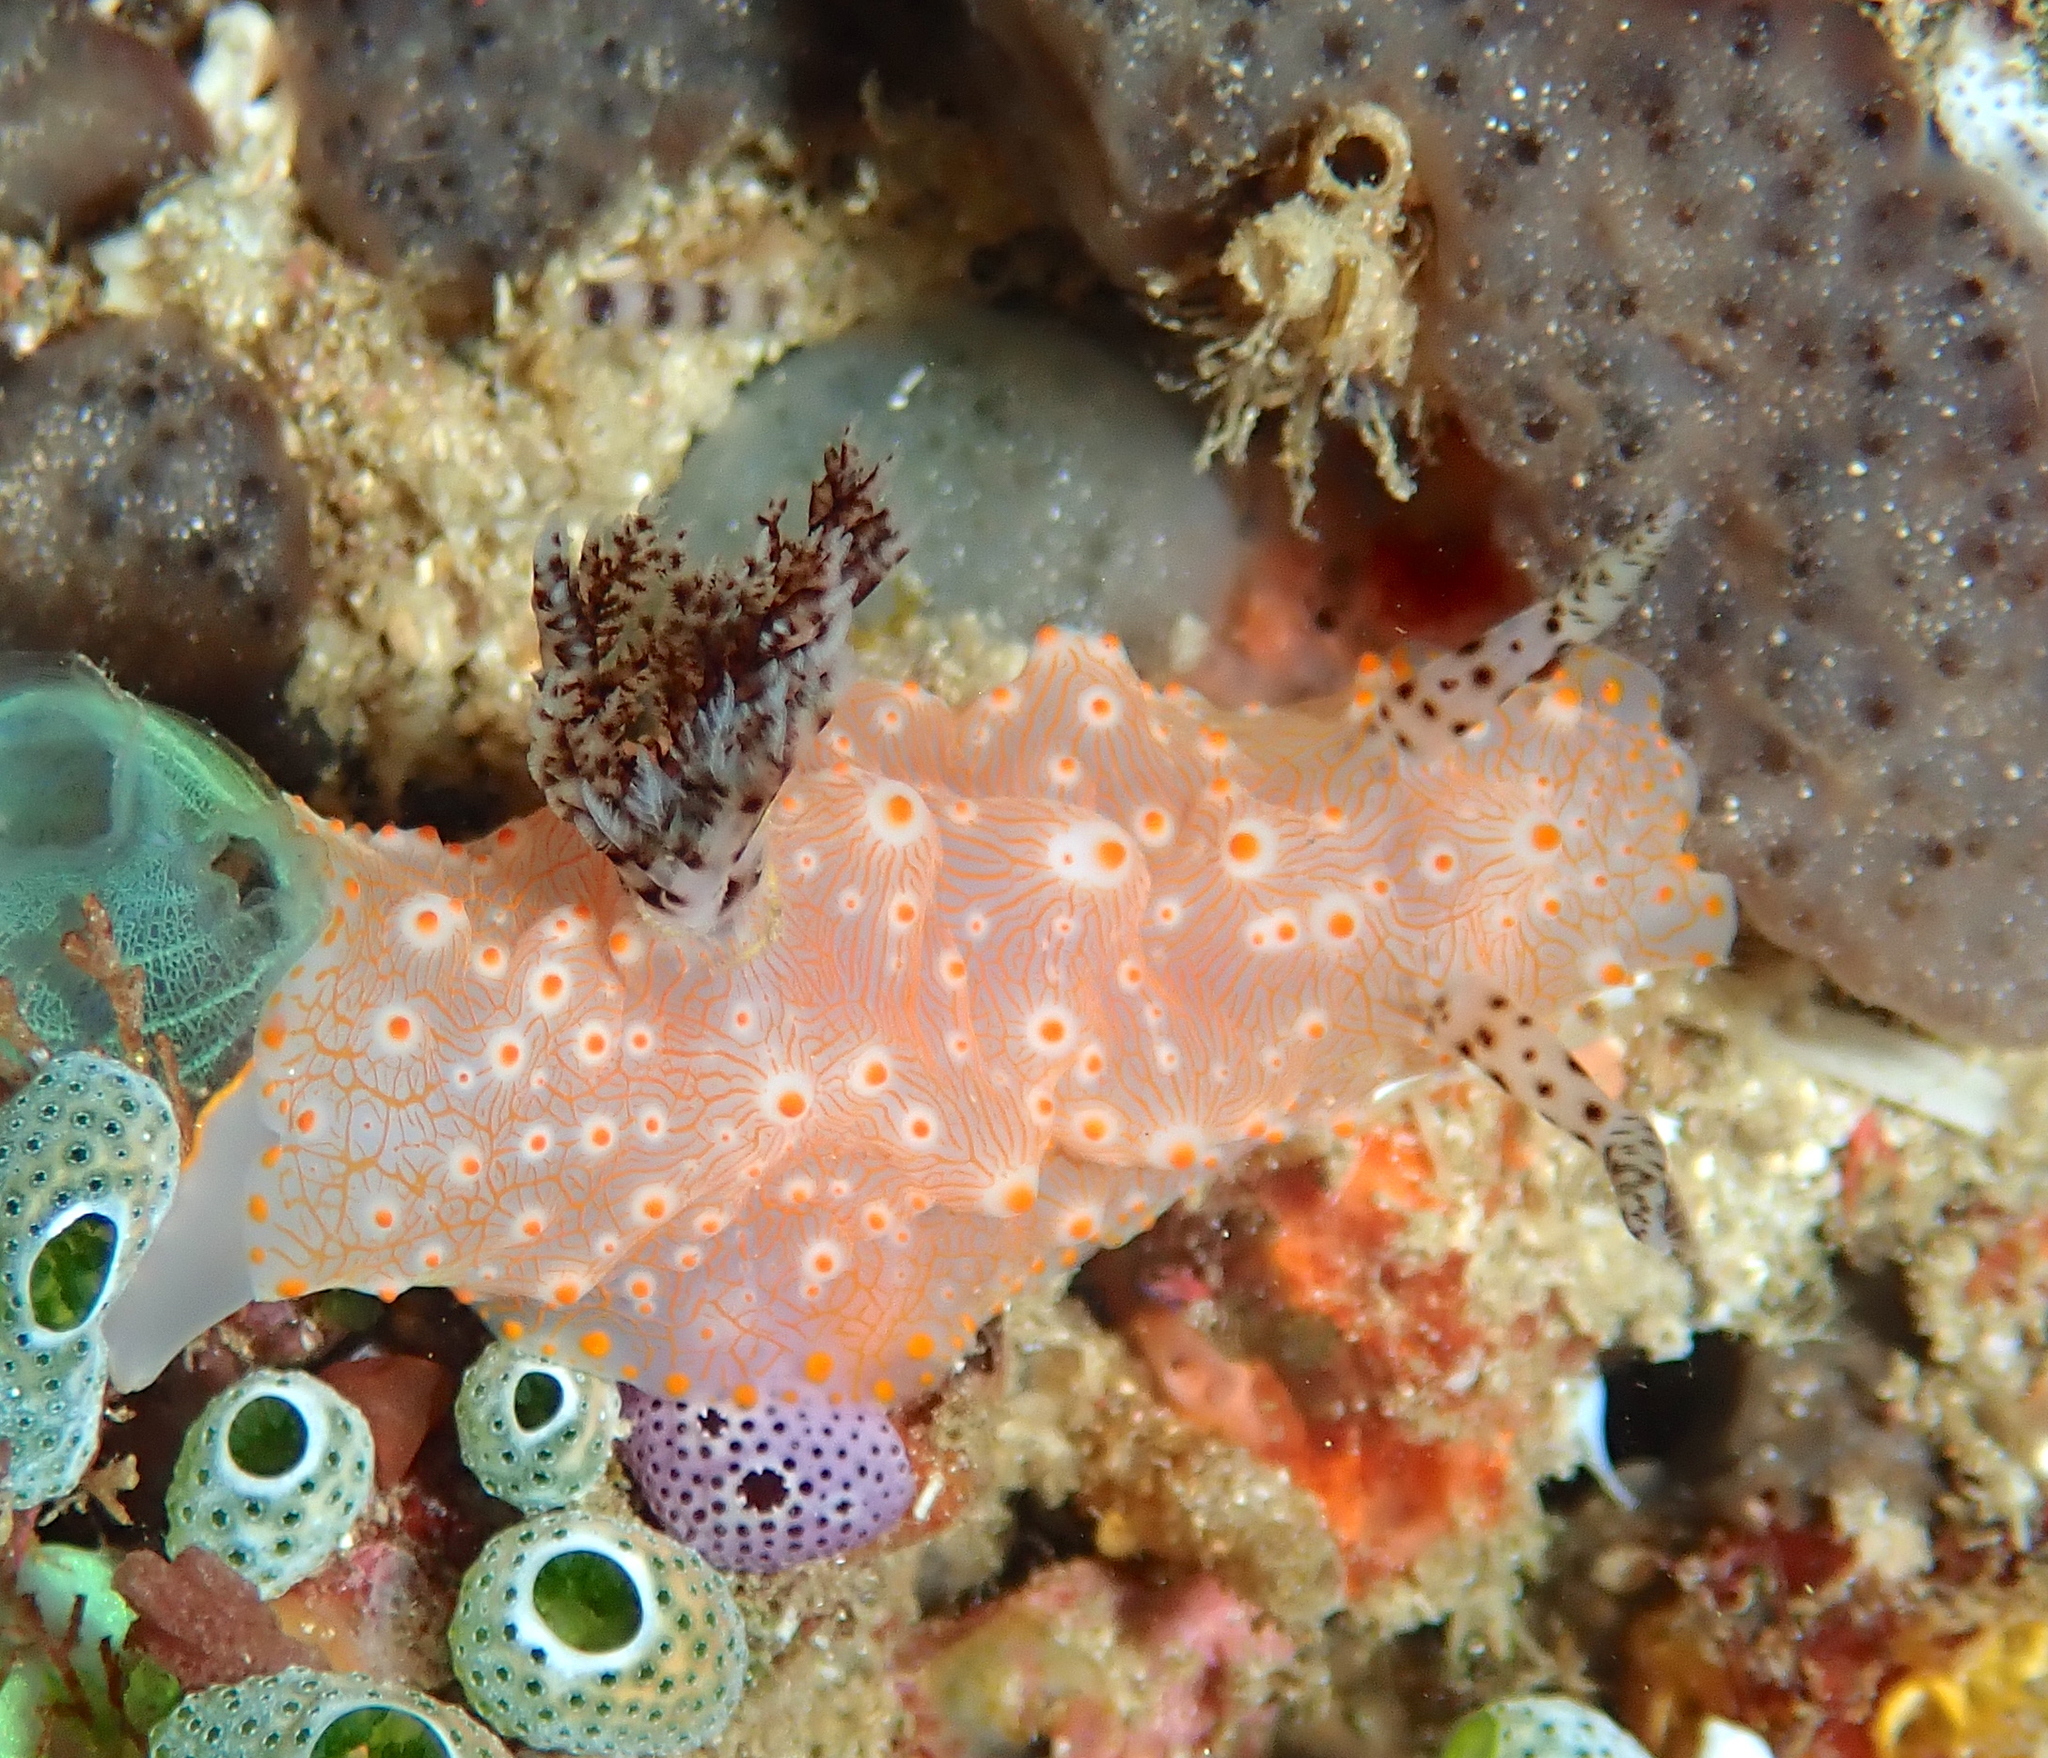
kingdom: Animalia
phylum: Mollusca
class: Gastropoda
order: Nudibranchia
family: Discodorididae
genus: Halgerda
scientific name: Halgerda batangas
